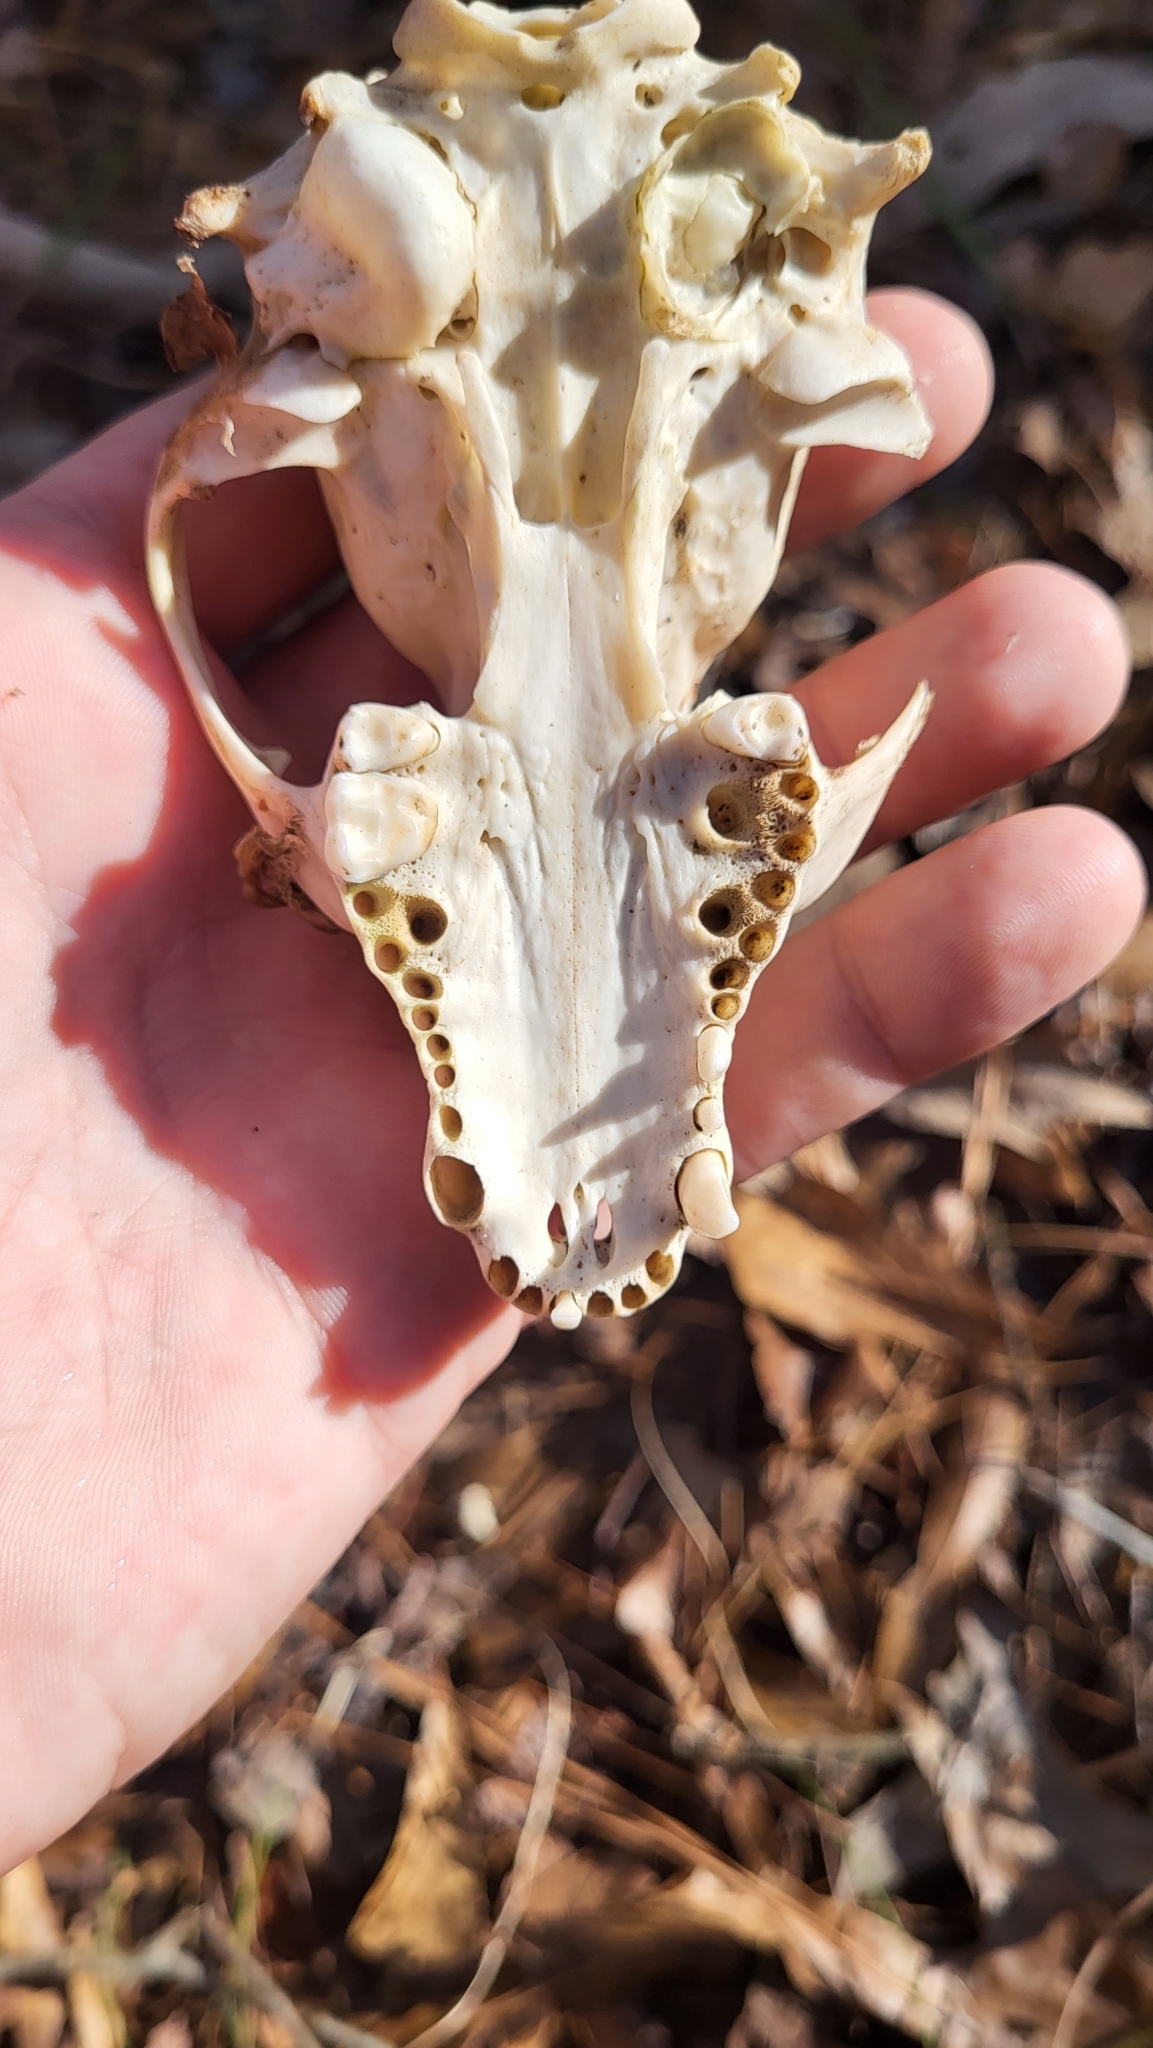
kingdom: Animalia
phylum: Chordata
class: Mammalia
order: Carnivora
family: Procyonidae
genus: Procyon
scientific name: Procyon lotor
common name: Raccoon
